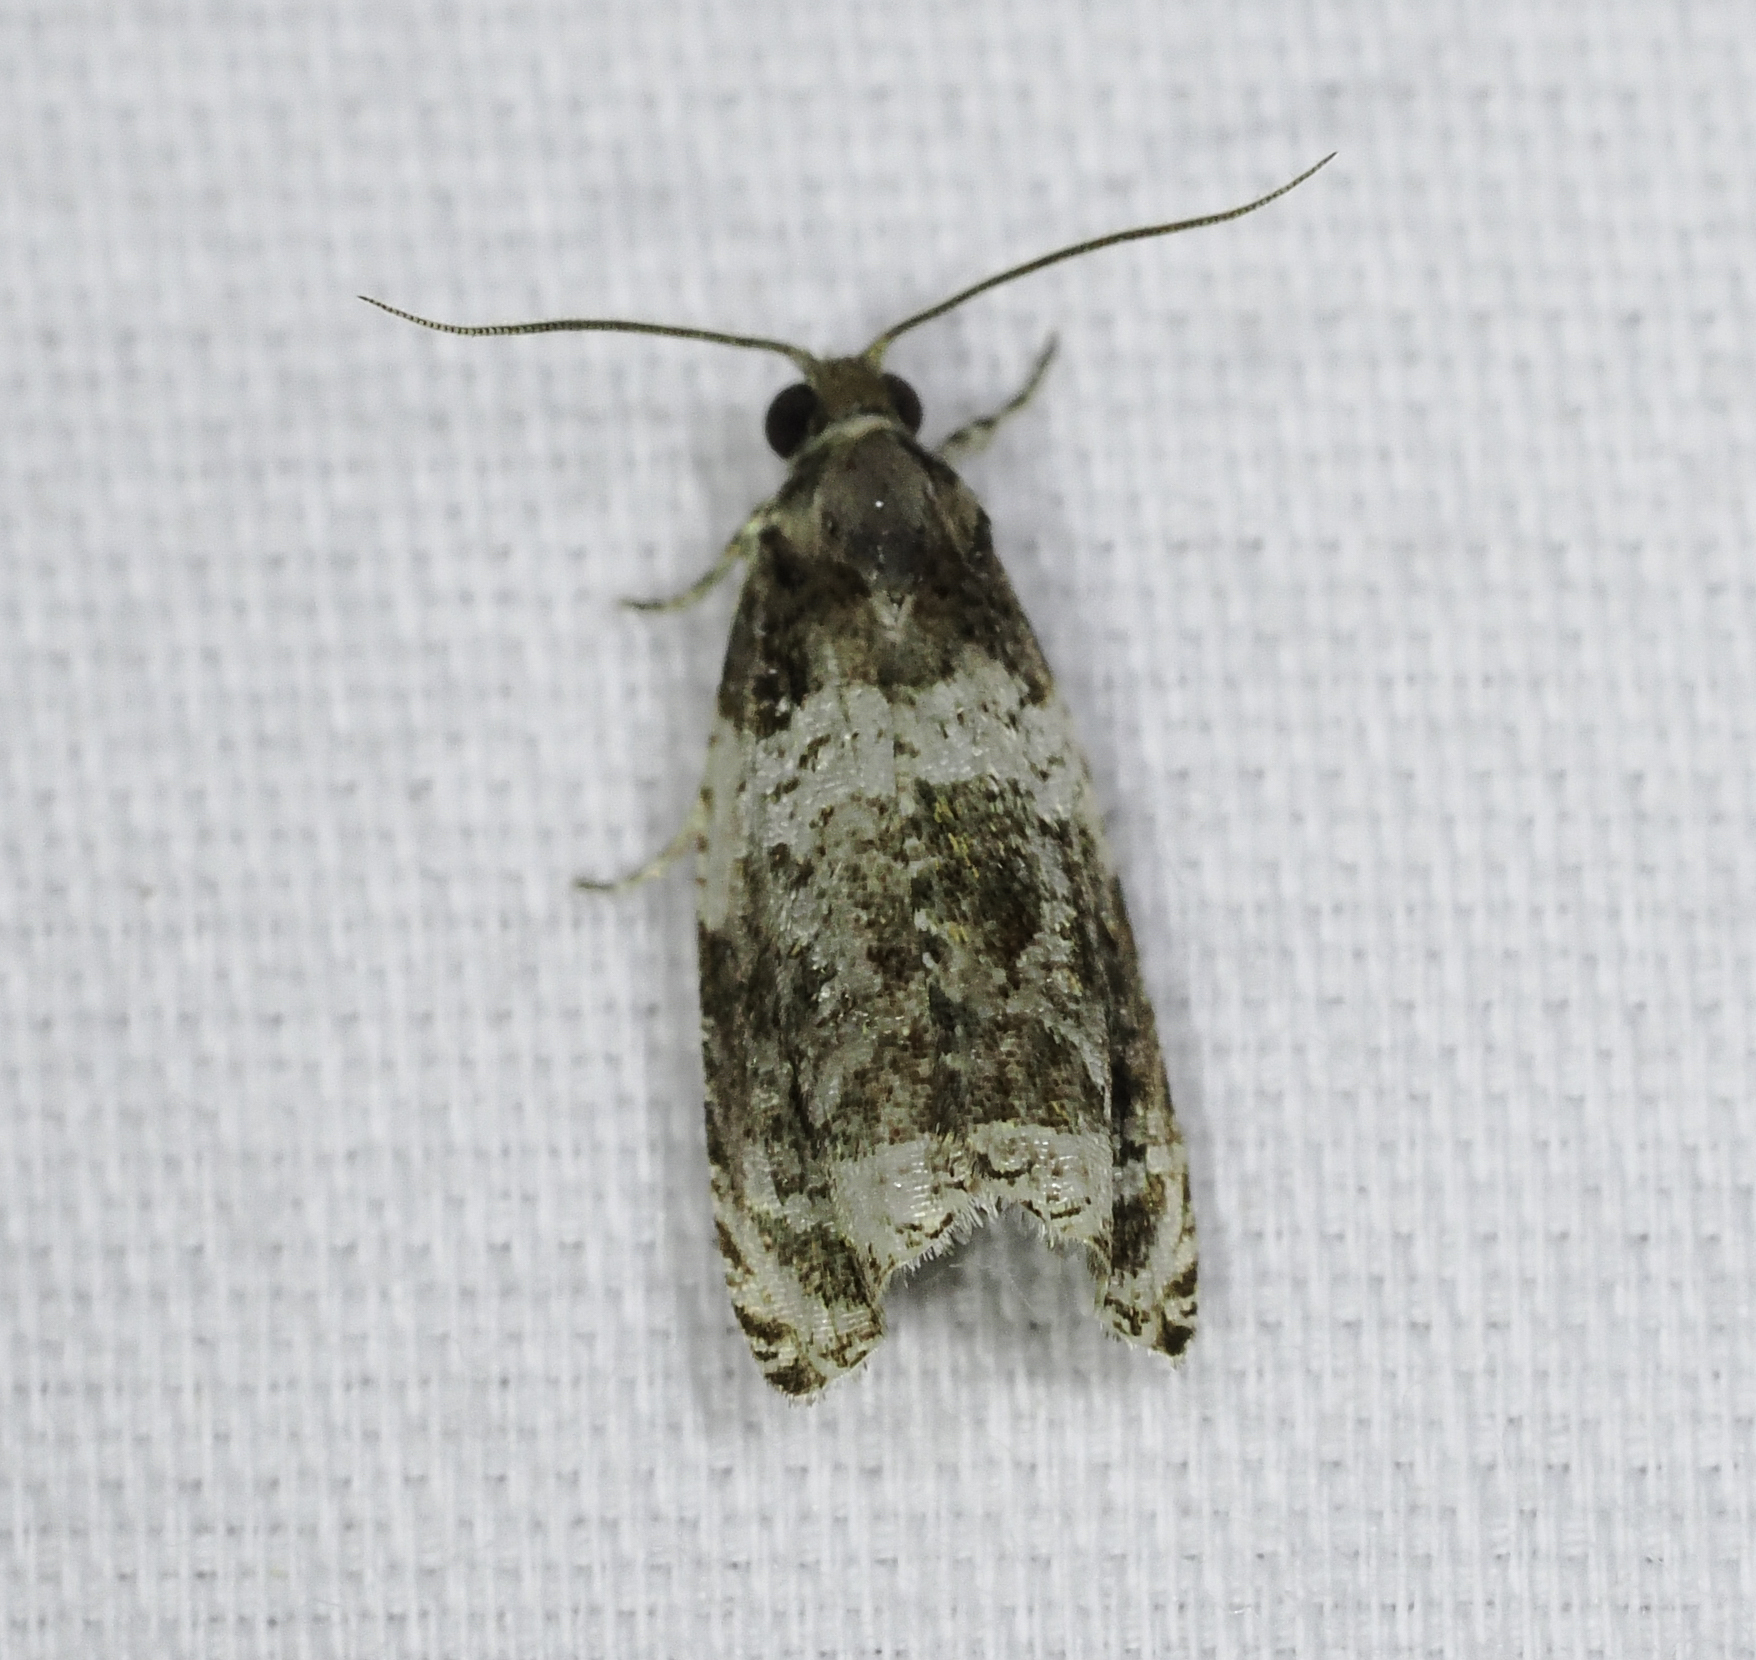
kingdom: Animalia
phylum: Arthropoda
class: Insecta
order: Lepidoptera
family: Tortricidae
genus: Olethreutes
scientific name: Olethreutes fasciatana
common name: Banded olethreutes moth
